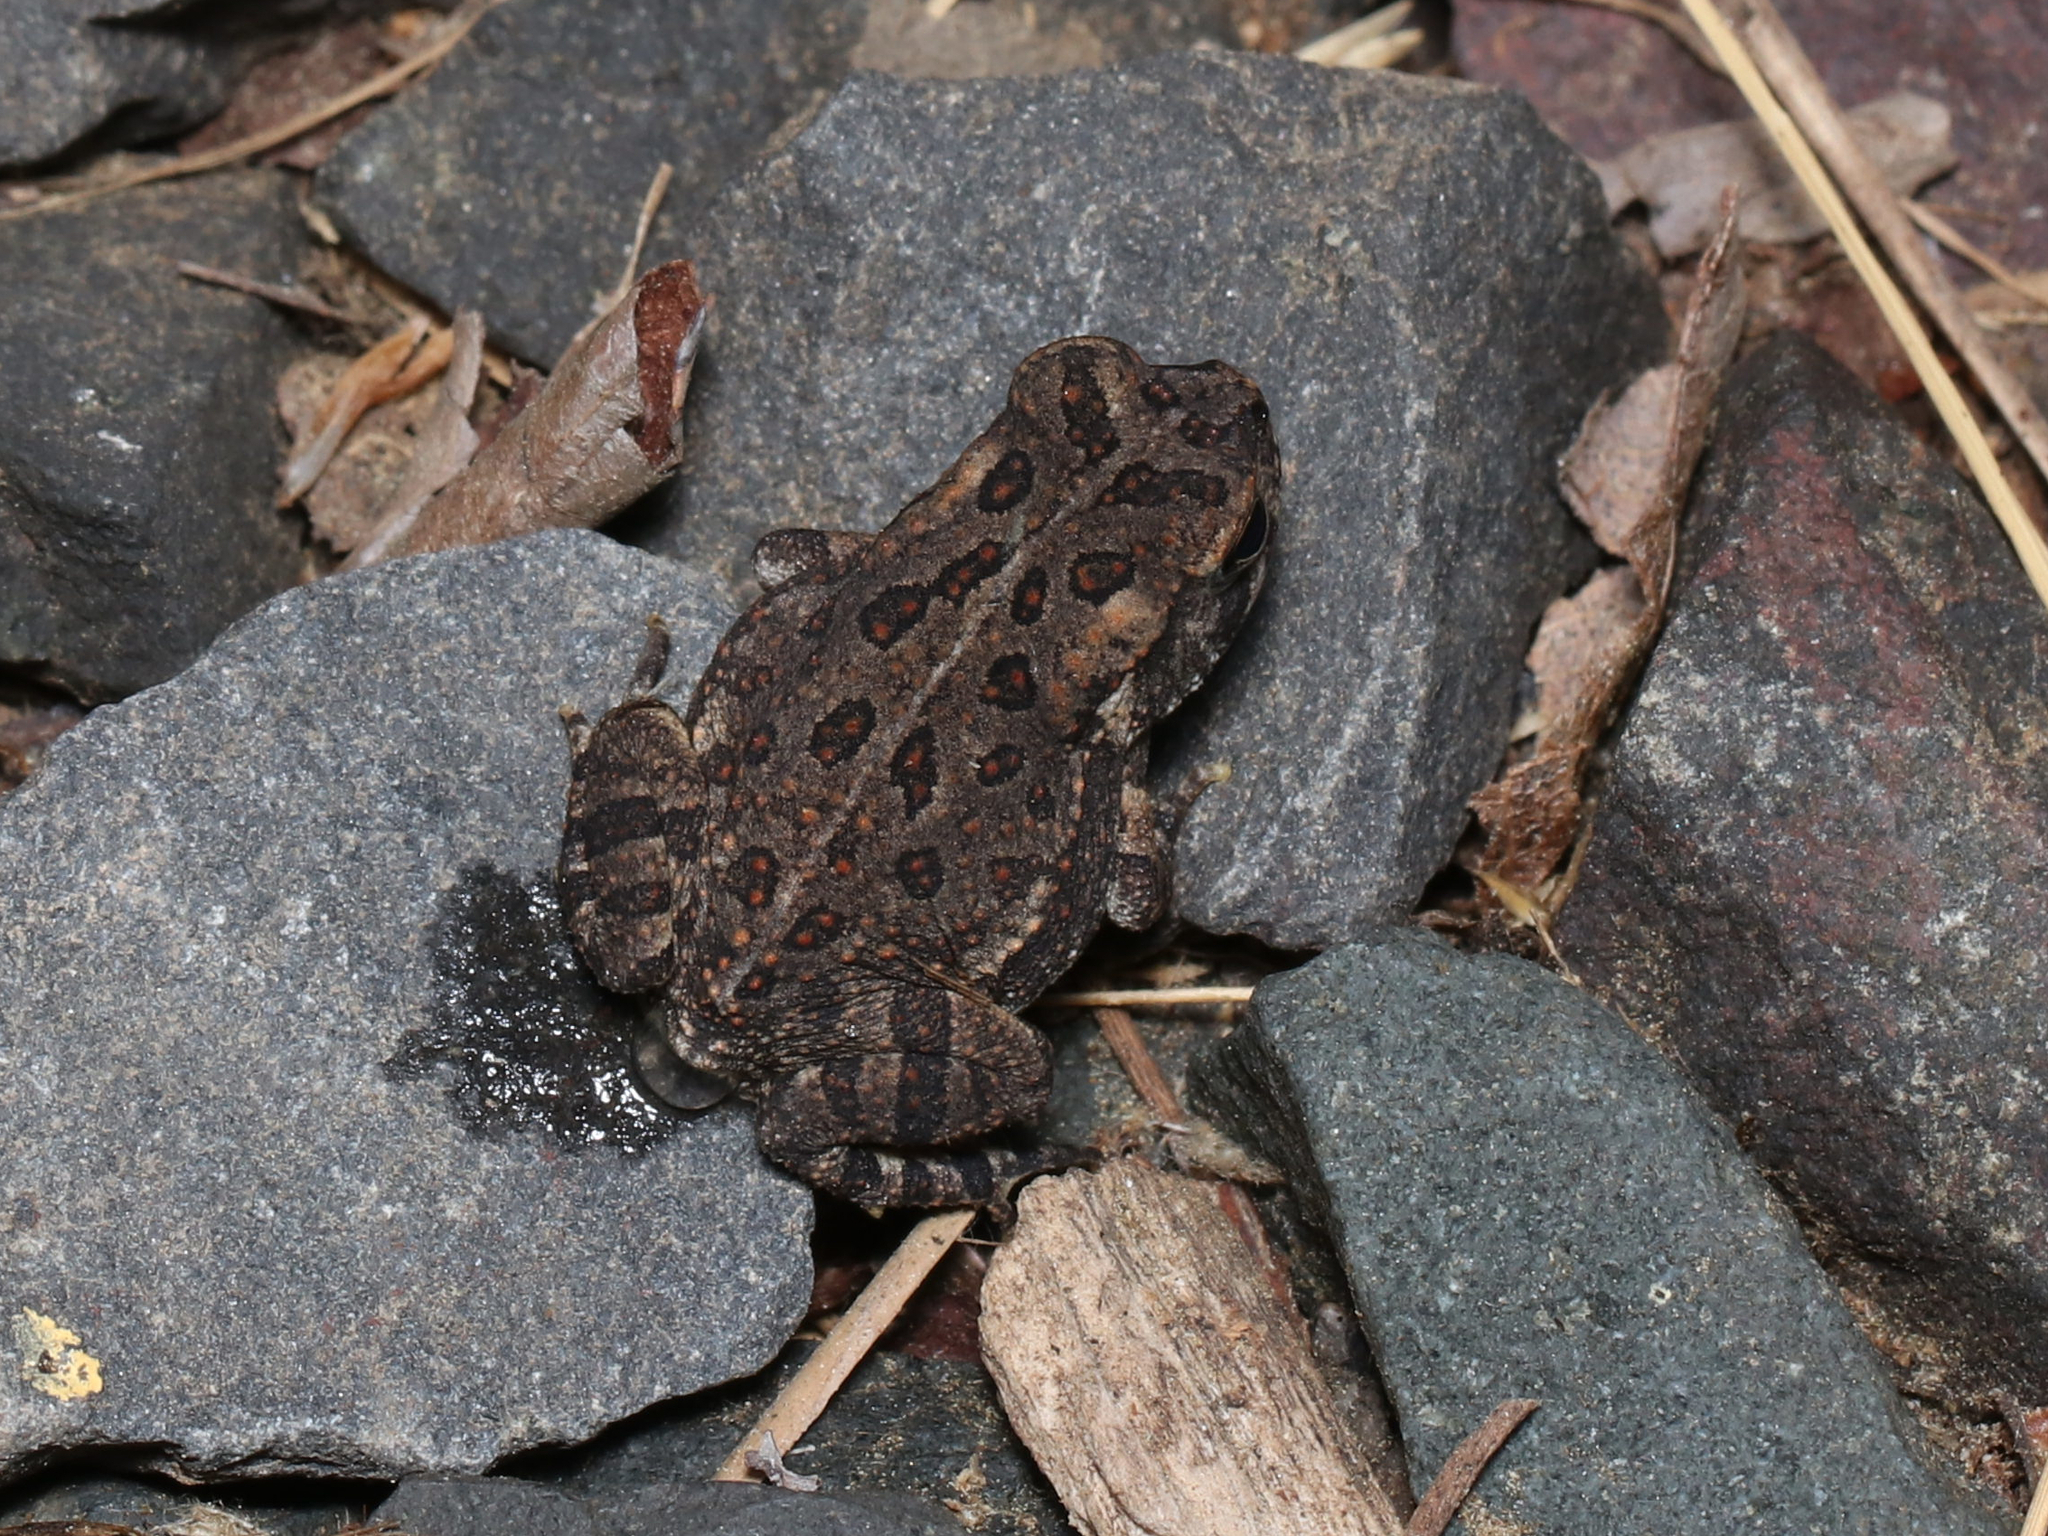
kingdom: Animalia
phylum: Chordata
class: Amphibia
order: Anura
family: Bufonidae
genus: Anaxyrus
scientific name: Anaxyrus fowleri
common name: Fowler's toad
